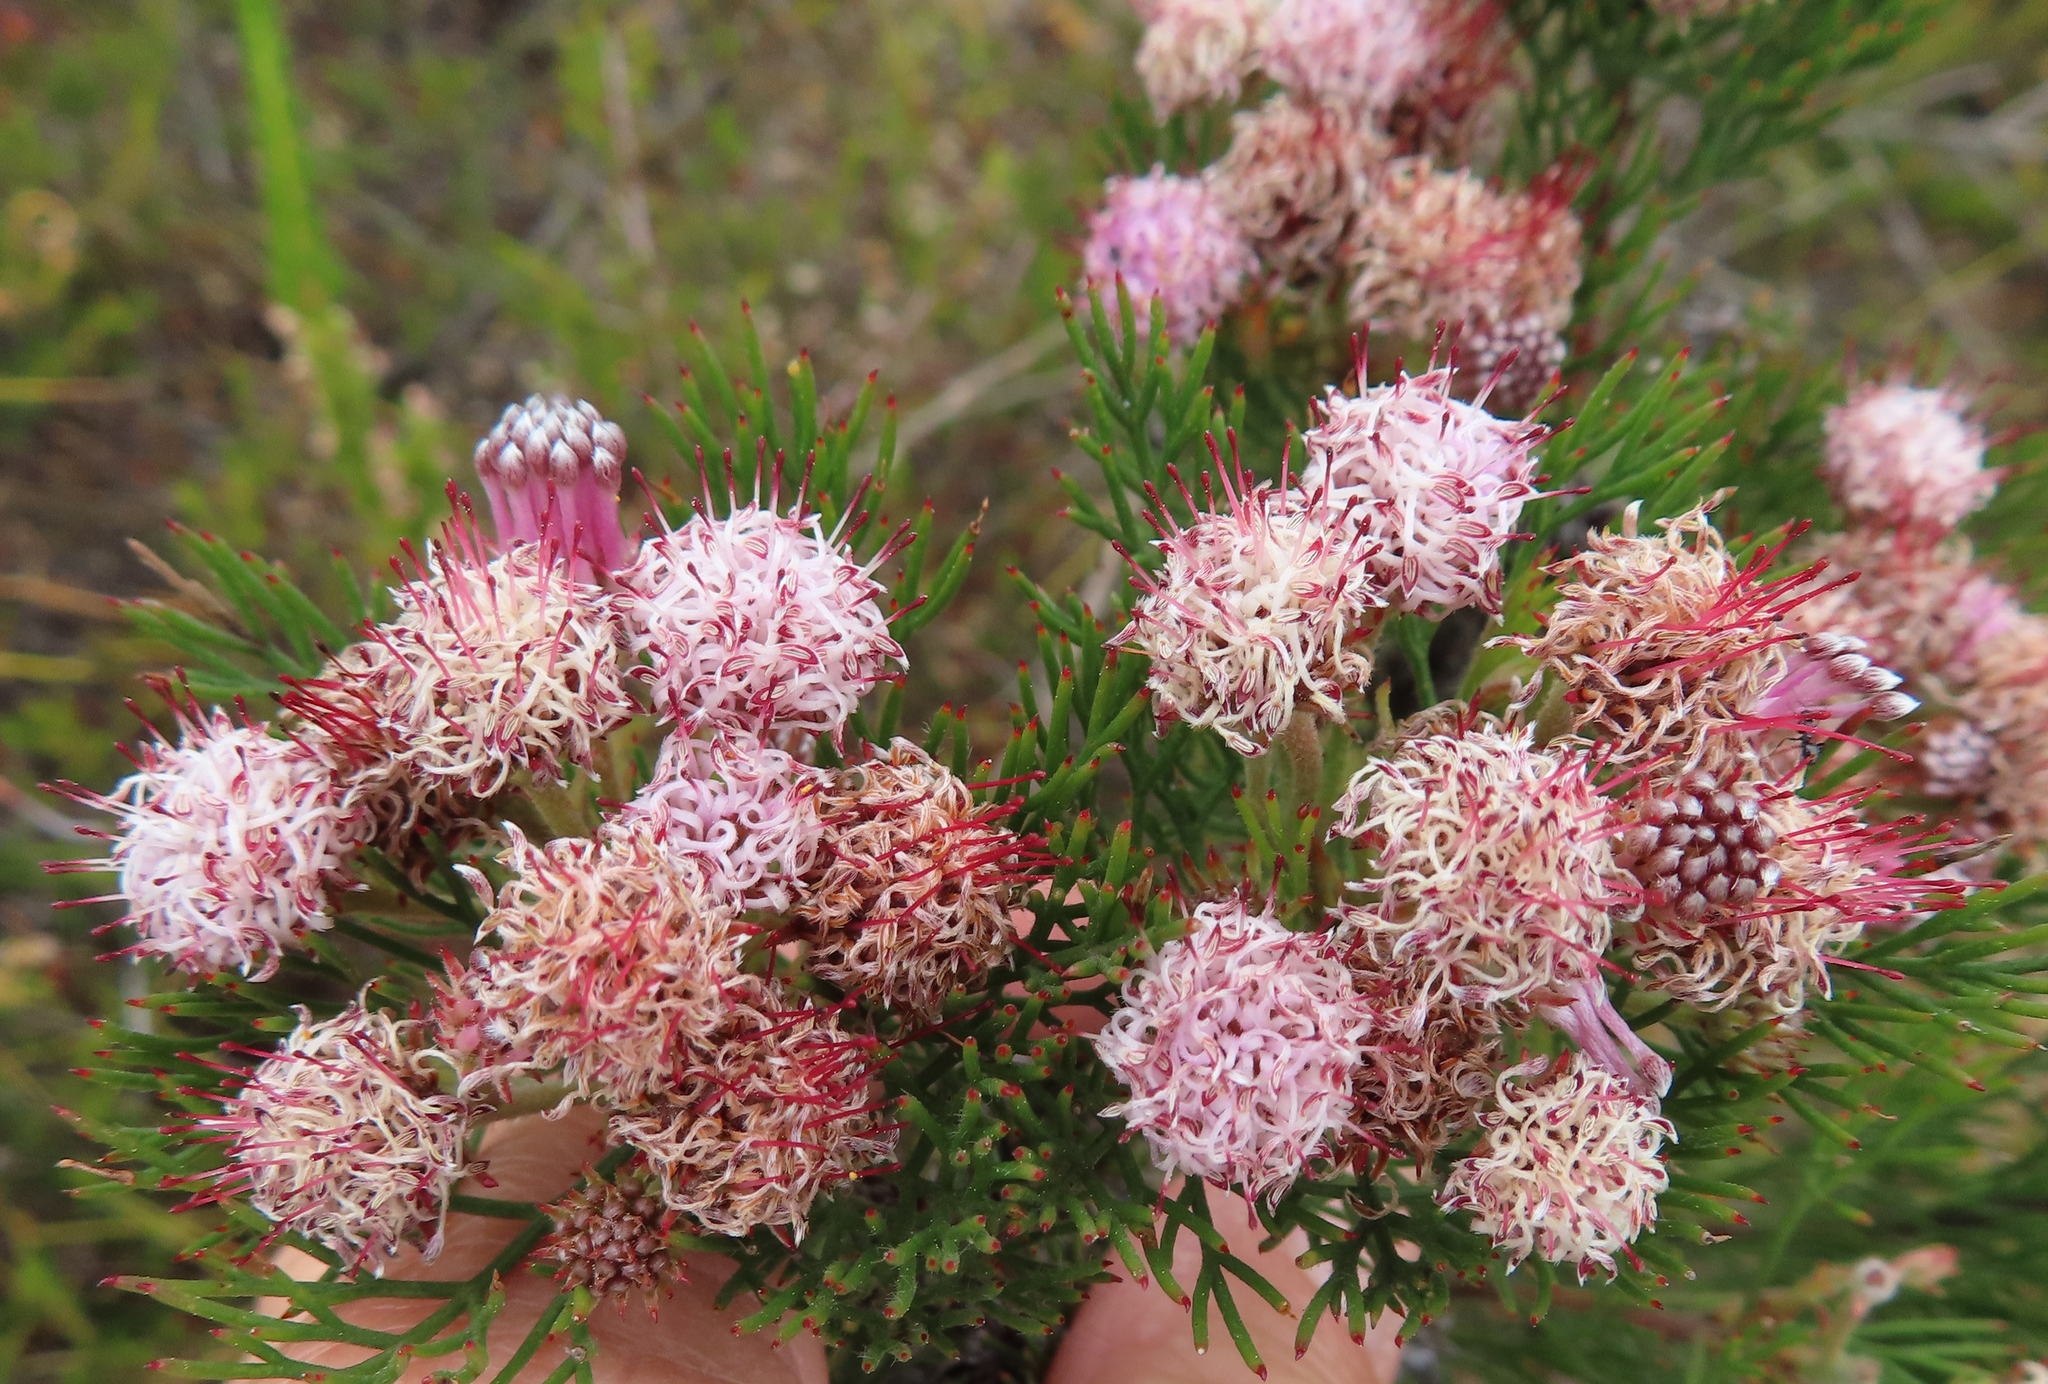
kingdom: Plantae
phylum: Tracheophyta
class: Magnoliopsida
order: Proteales
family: Proteaceae
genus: Serruria
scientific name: Serruria fasciflora
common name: Common pin spiderhead
